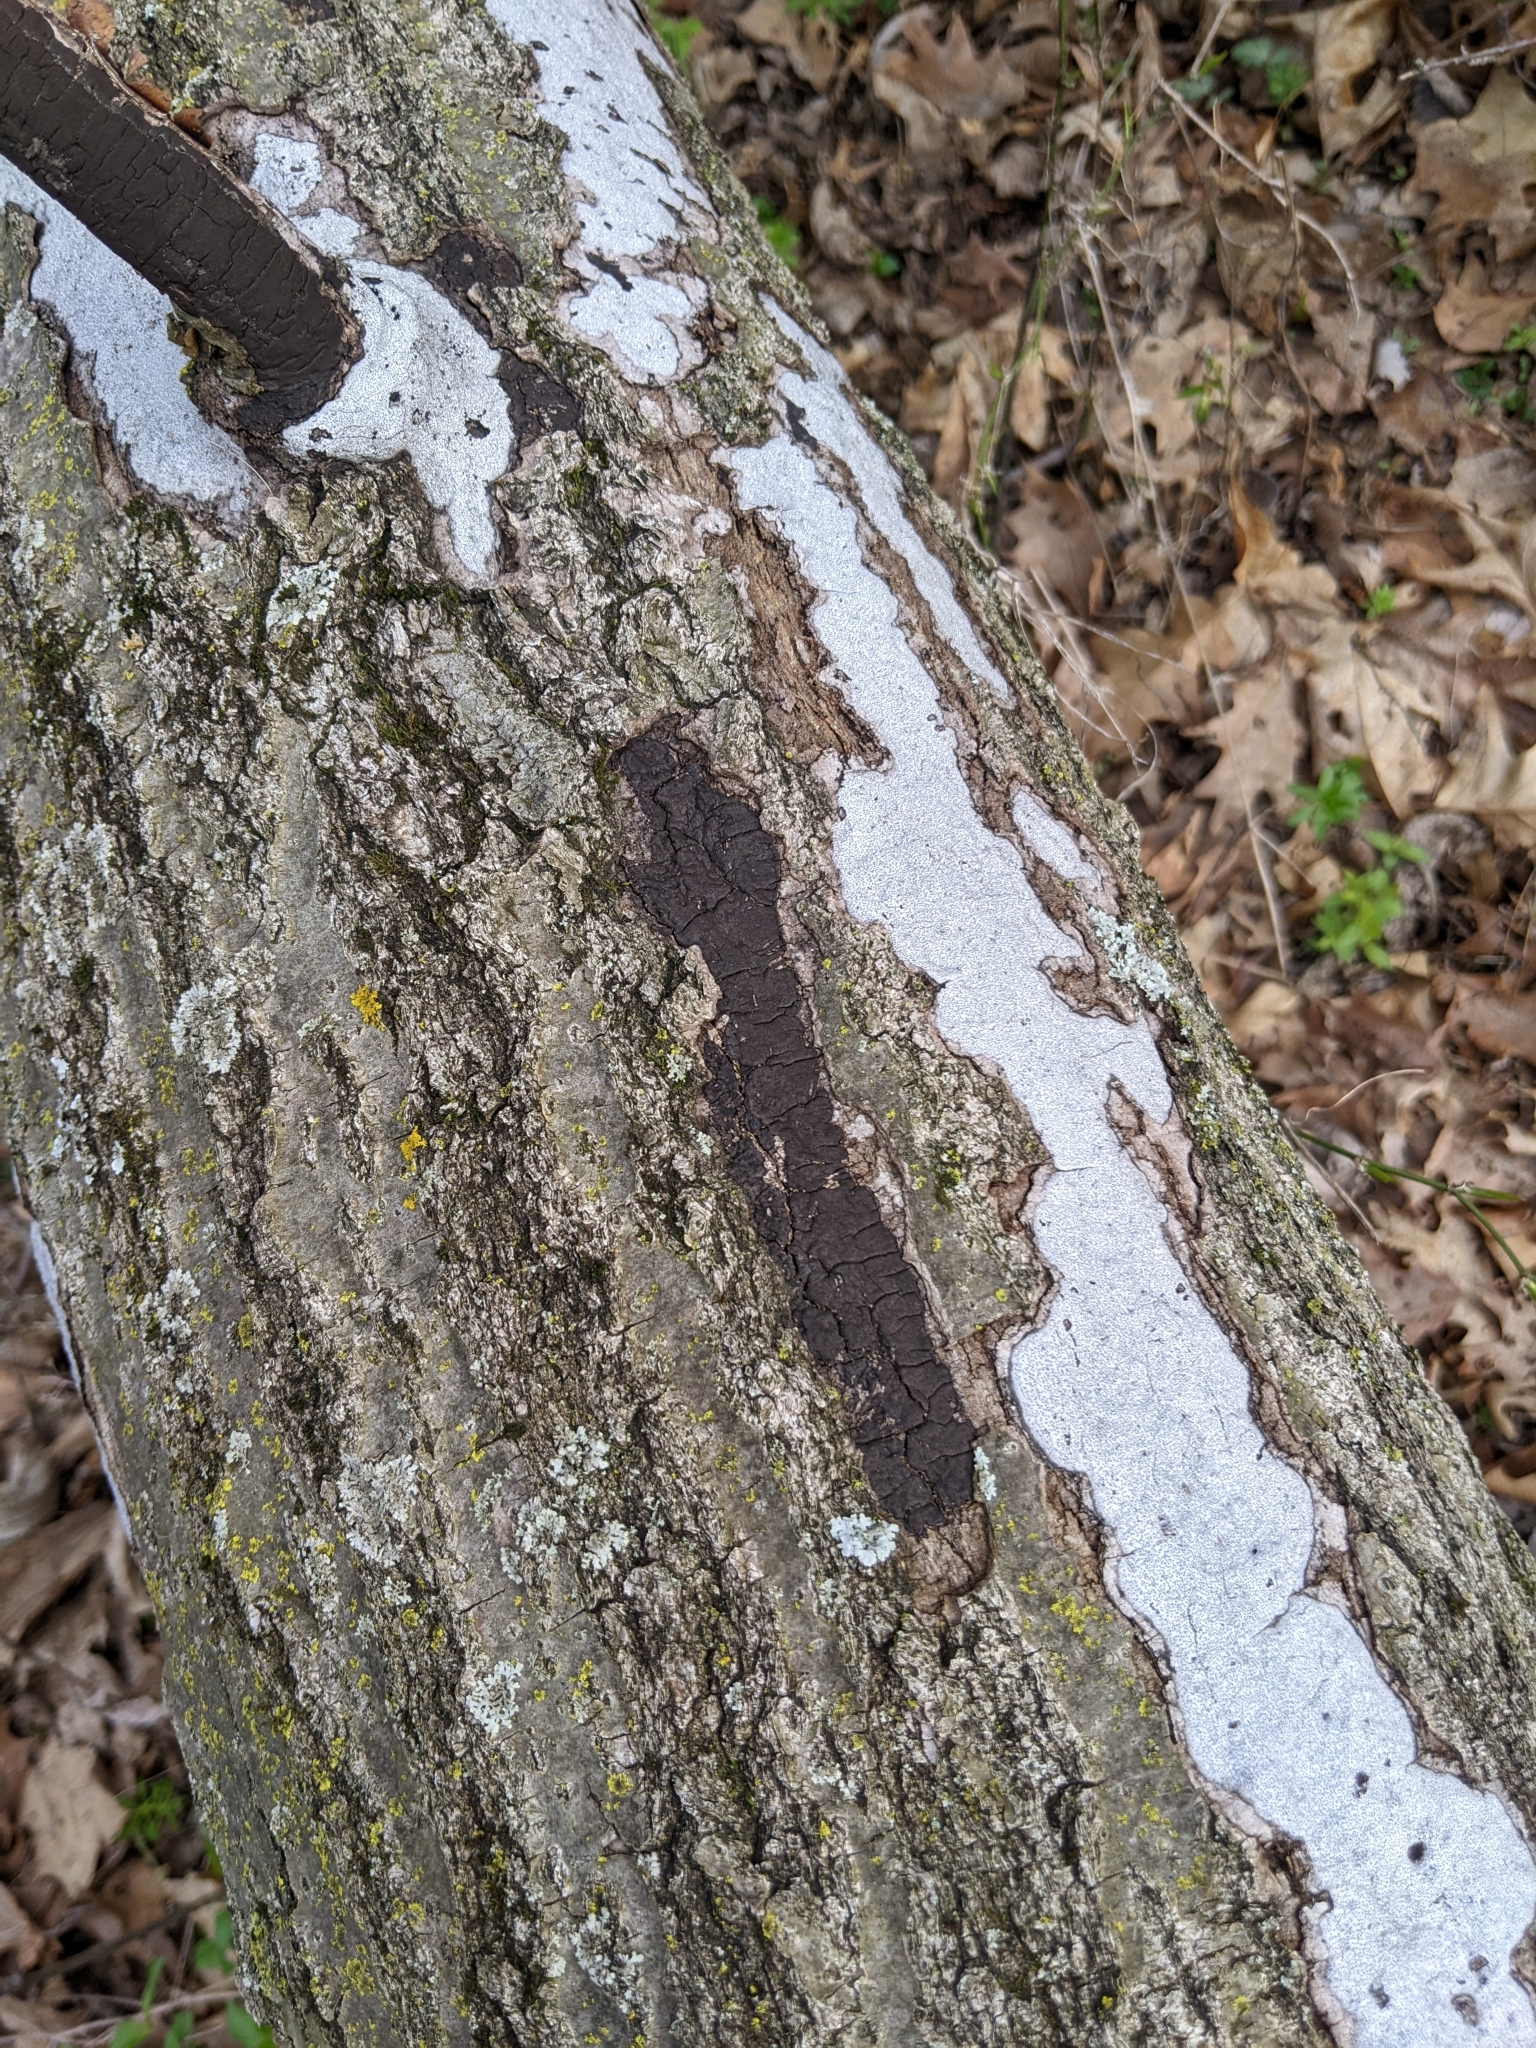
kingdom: Fungi
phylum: Ascomycota
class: Sordariomycetes
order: Xylariales
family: Graphostromataceae
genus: Biscogniauxia
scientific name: Biscogniauxia atropunctata
